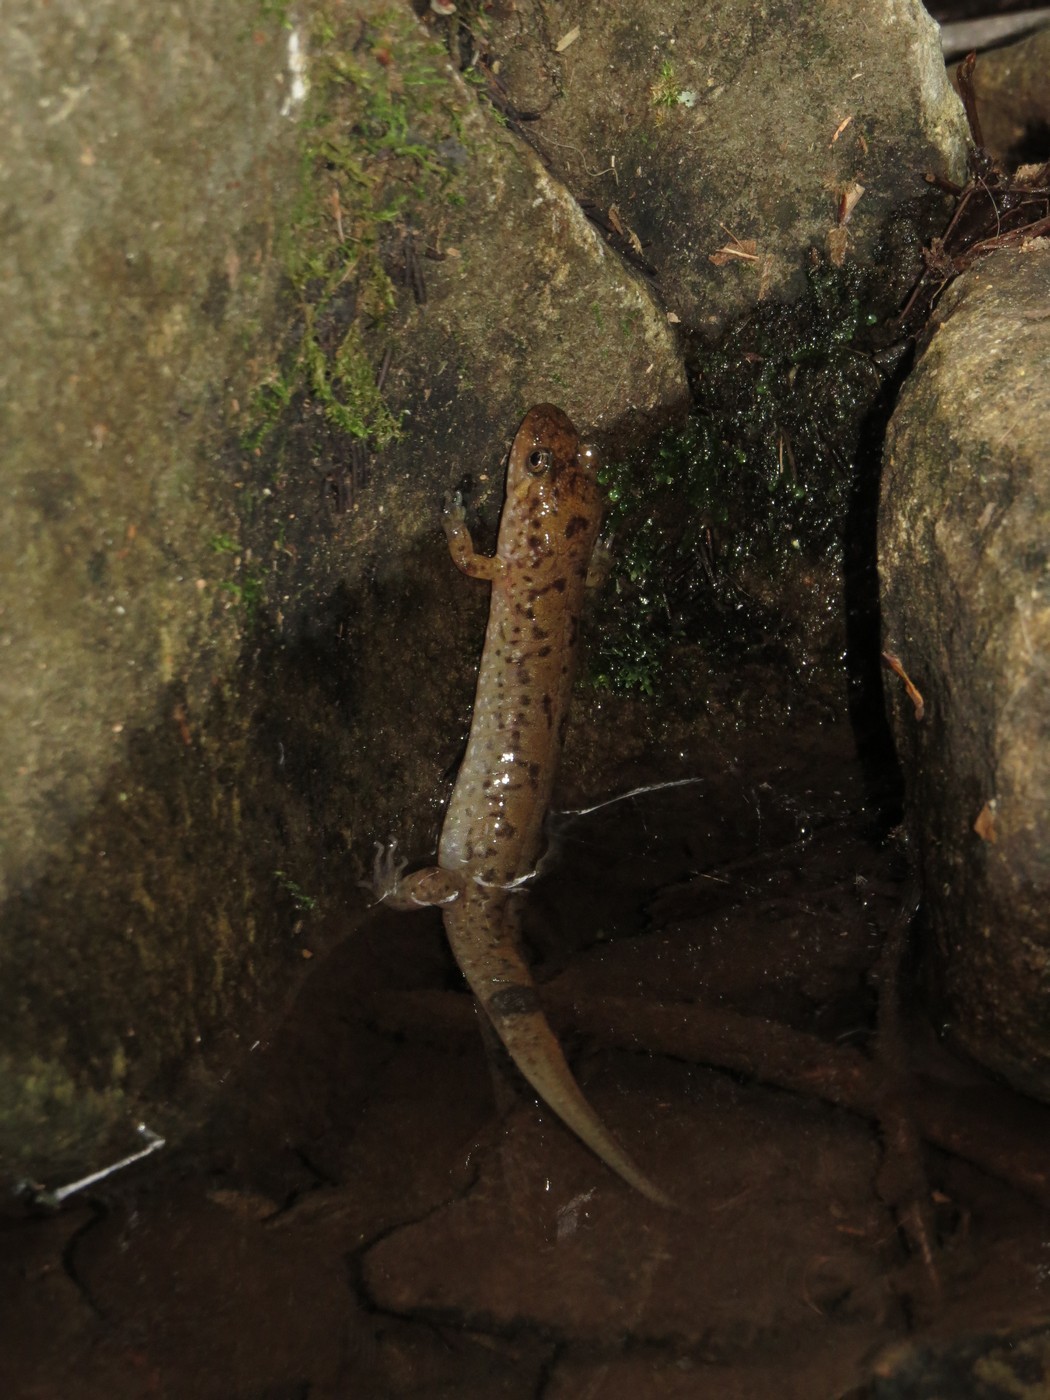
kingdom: Animalia
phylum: Chordata
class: Amphibia
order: Caudata
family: Plethodontidae
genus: Desmognathus
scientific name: Desmognathus monticola
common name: Seal salamander
